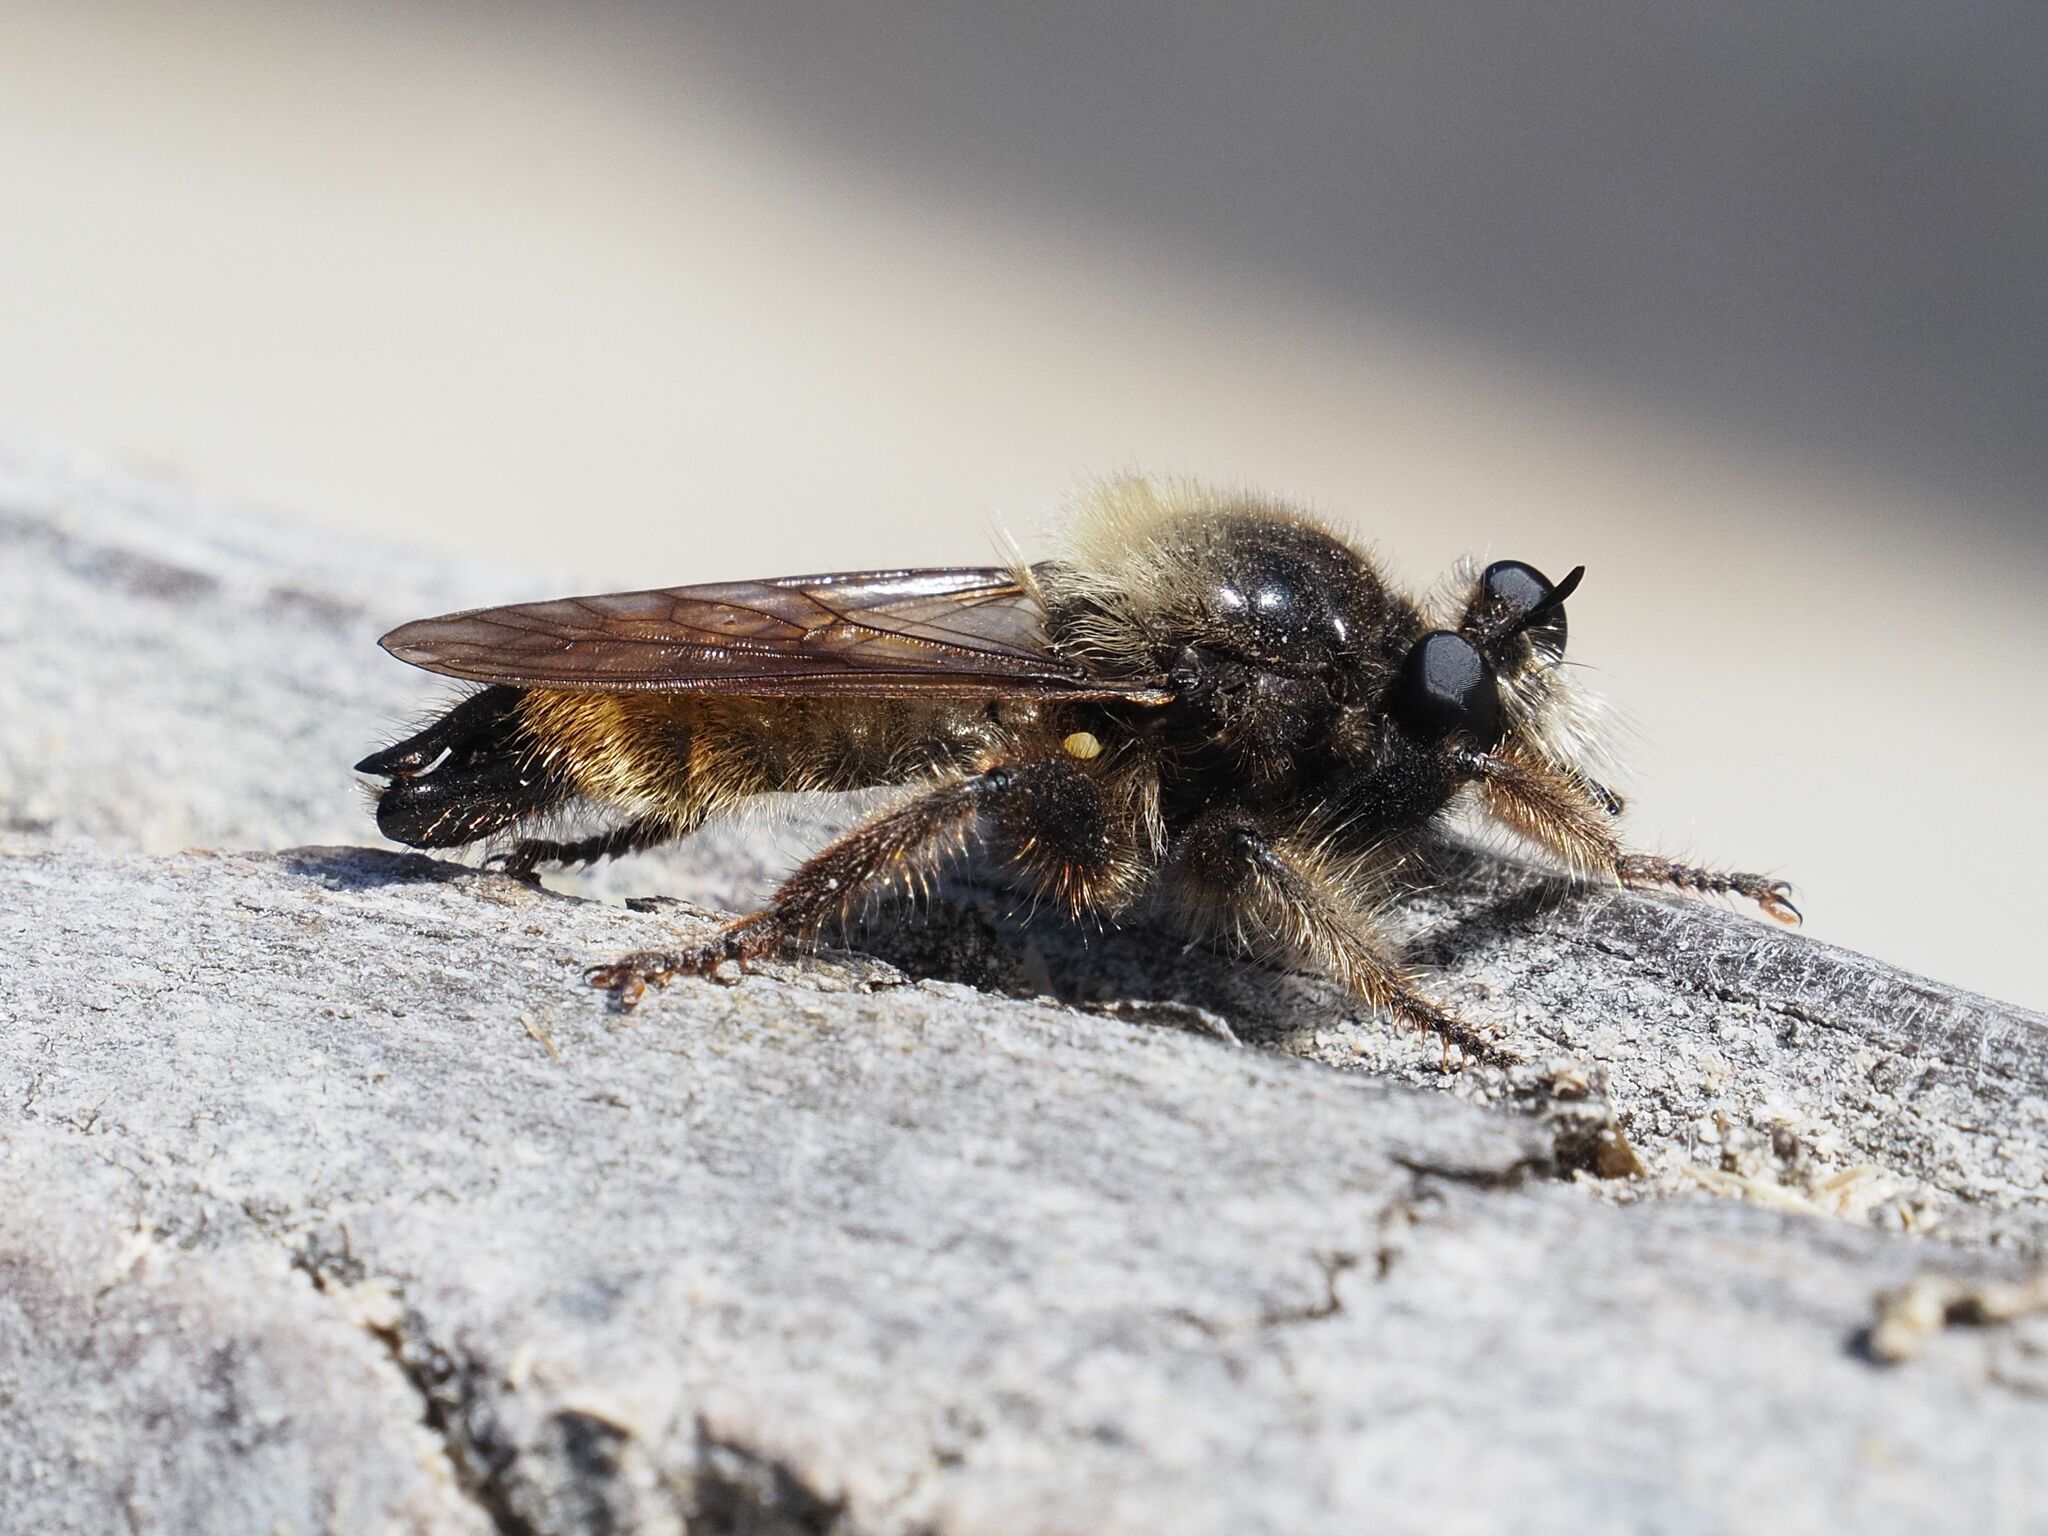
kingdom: Animalia
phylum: Arthropoda
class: Insecta
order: Diptera
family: Asilidae
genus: Laphria
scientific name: Laphria flava
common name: Bumblebee robberfly
